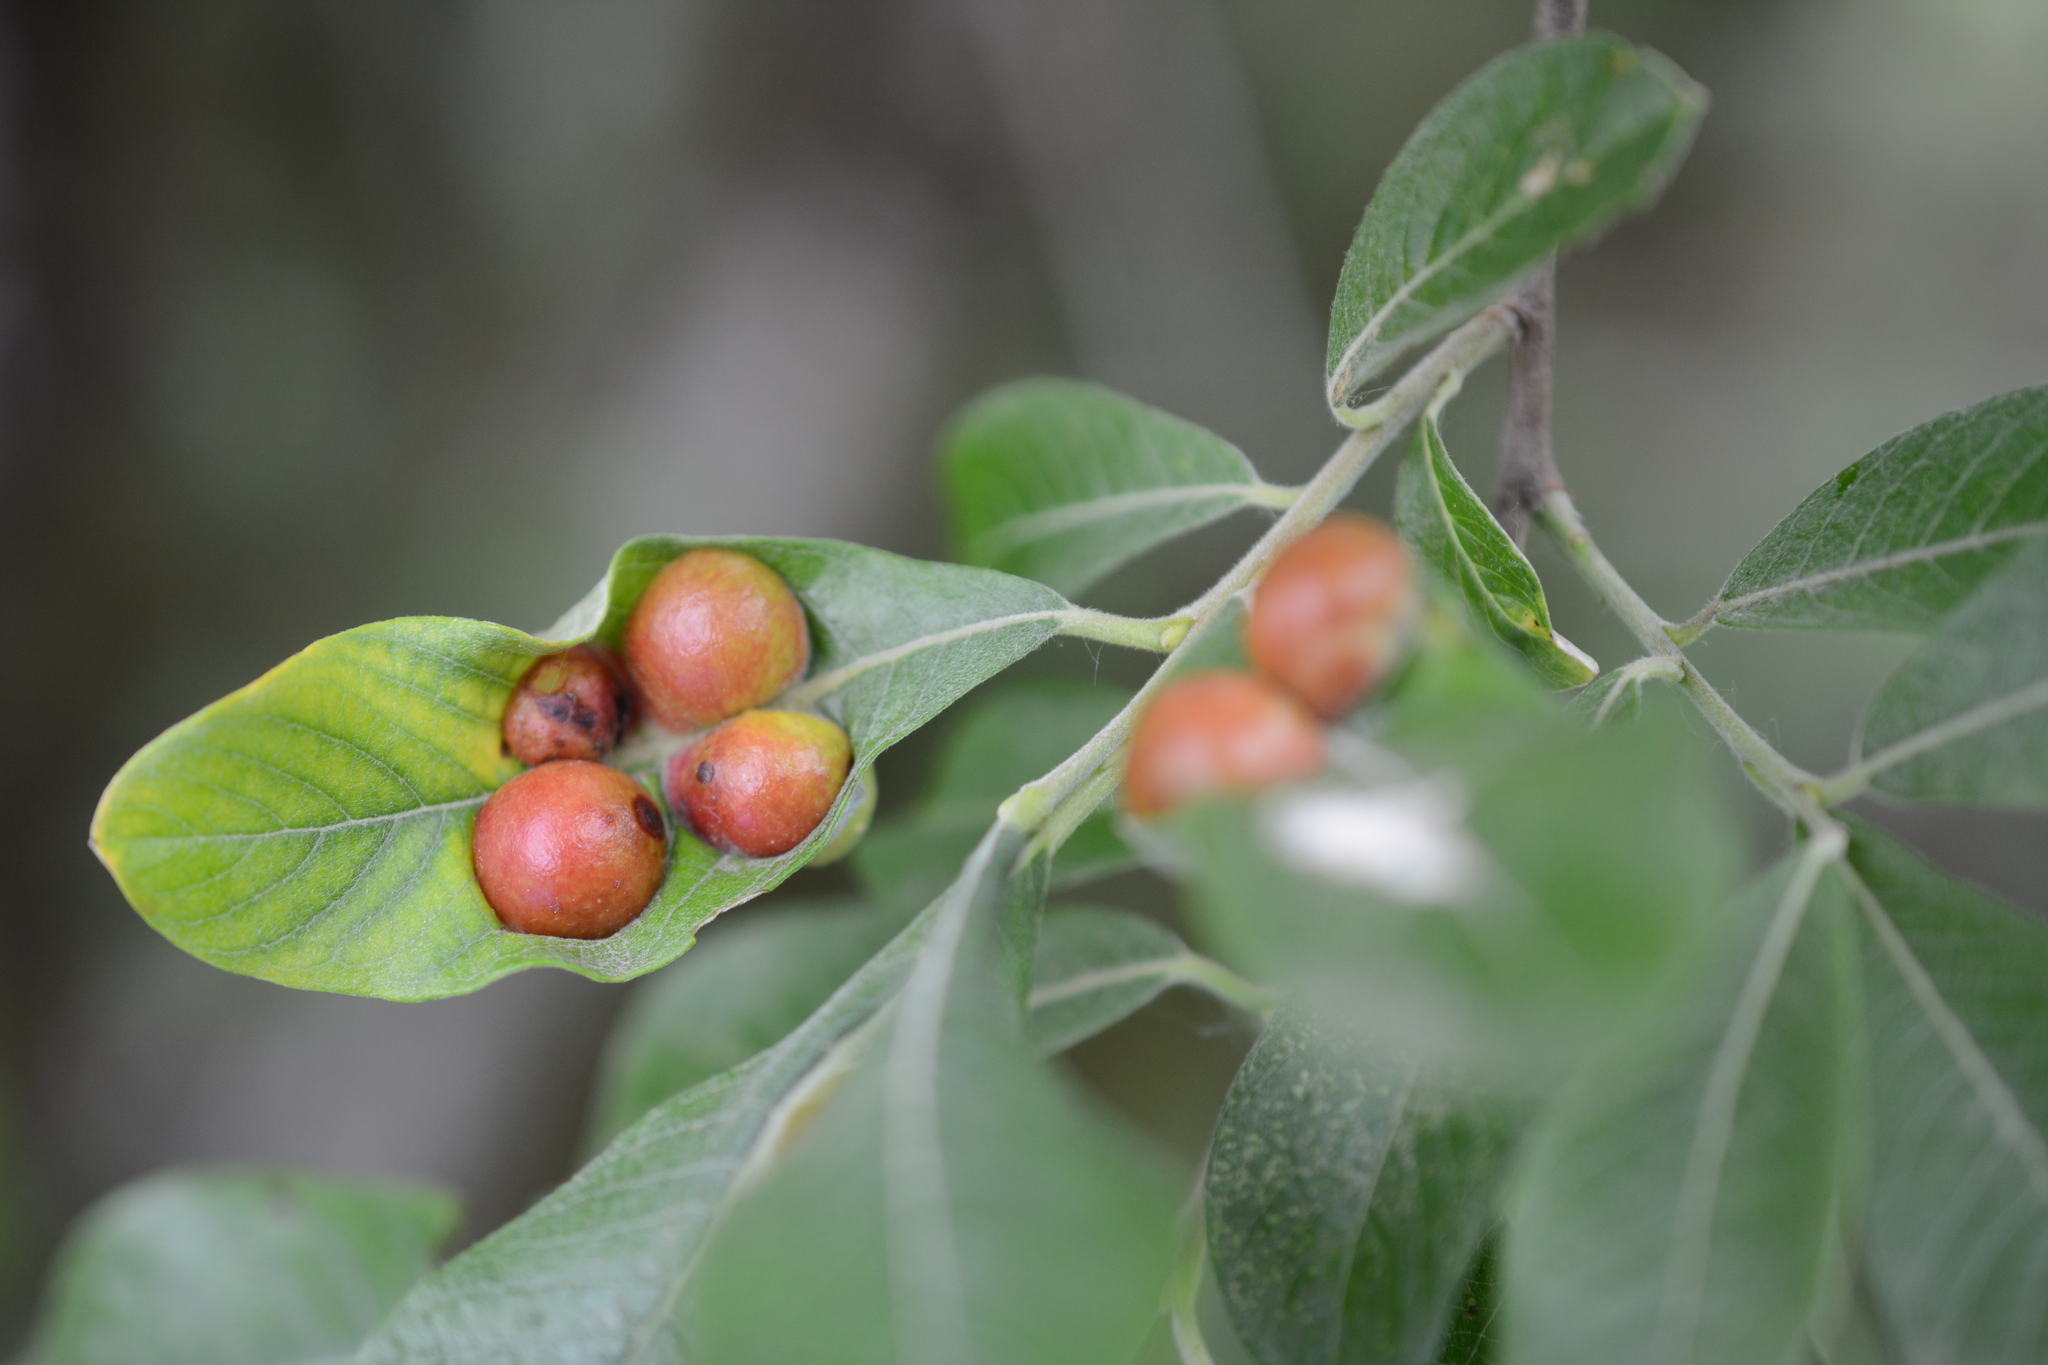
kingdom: Animalia
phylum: Arthropoda
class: Insecta
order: Hymenoptera
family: Tenthredinidae
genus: Euura
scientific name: Euura
